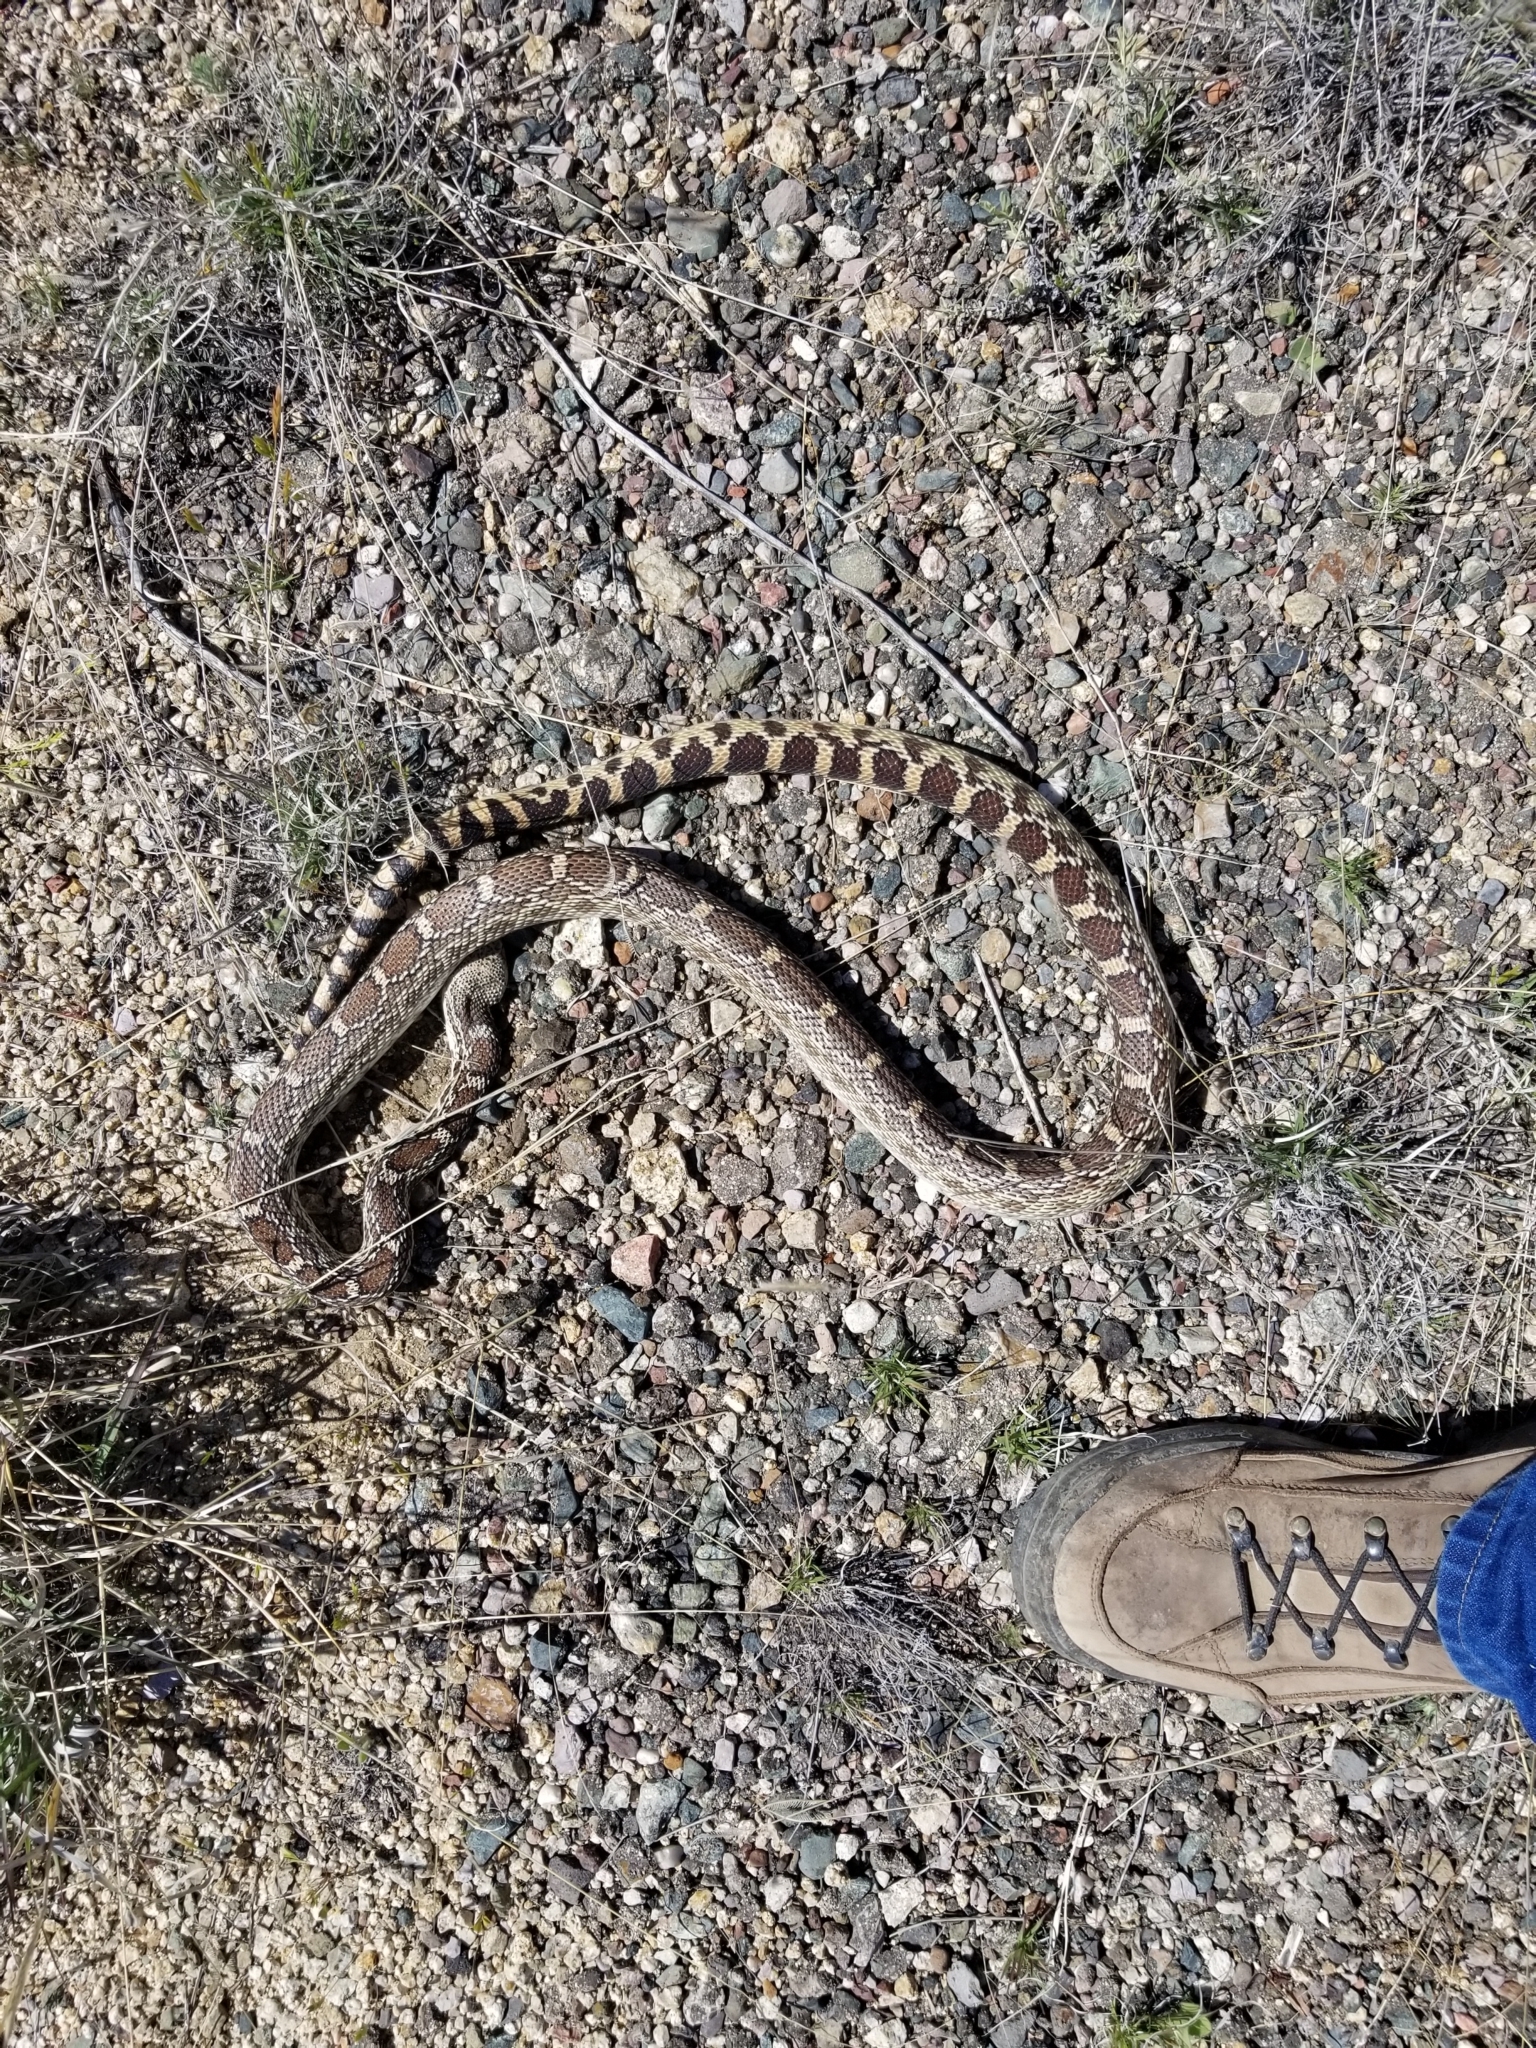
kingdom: Animalia
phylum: Chordata
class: Squamata
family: Colubridae
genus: Pituophis
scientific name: Pituophis catenifer
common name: Gopher snake
